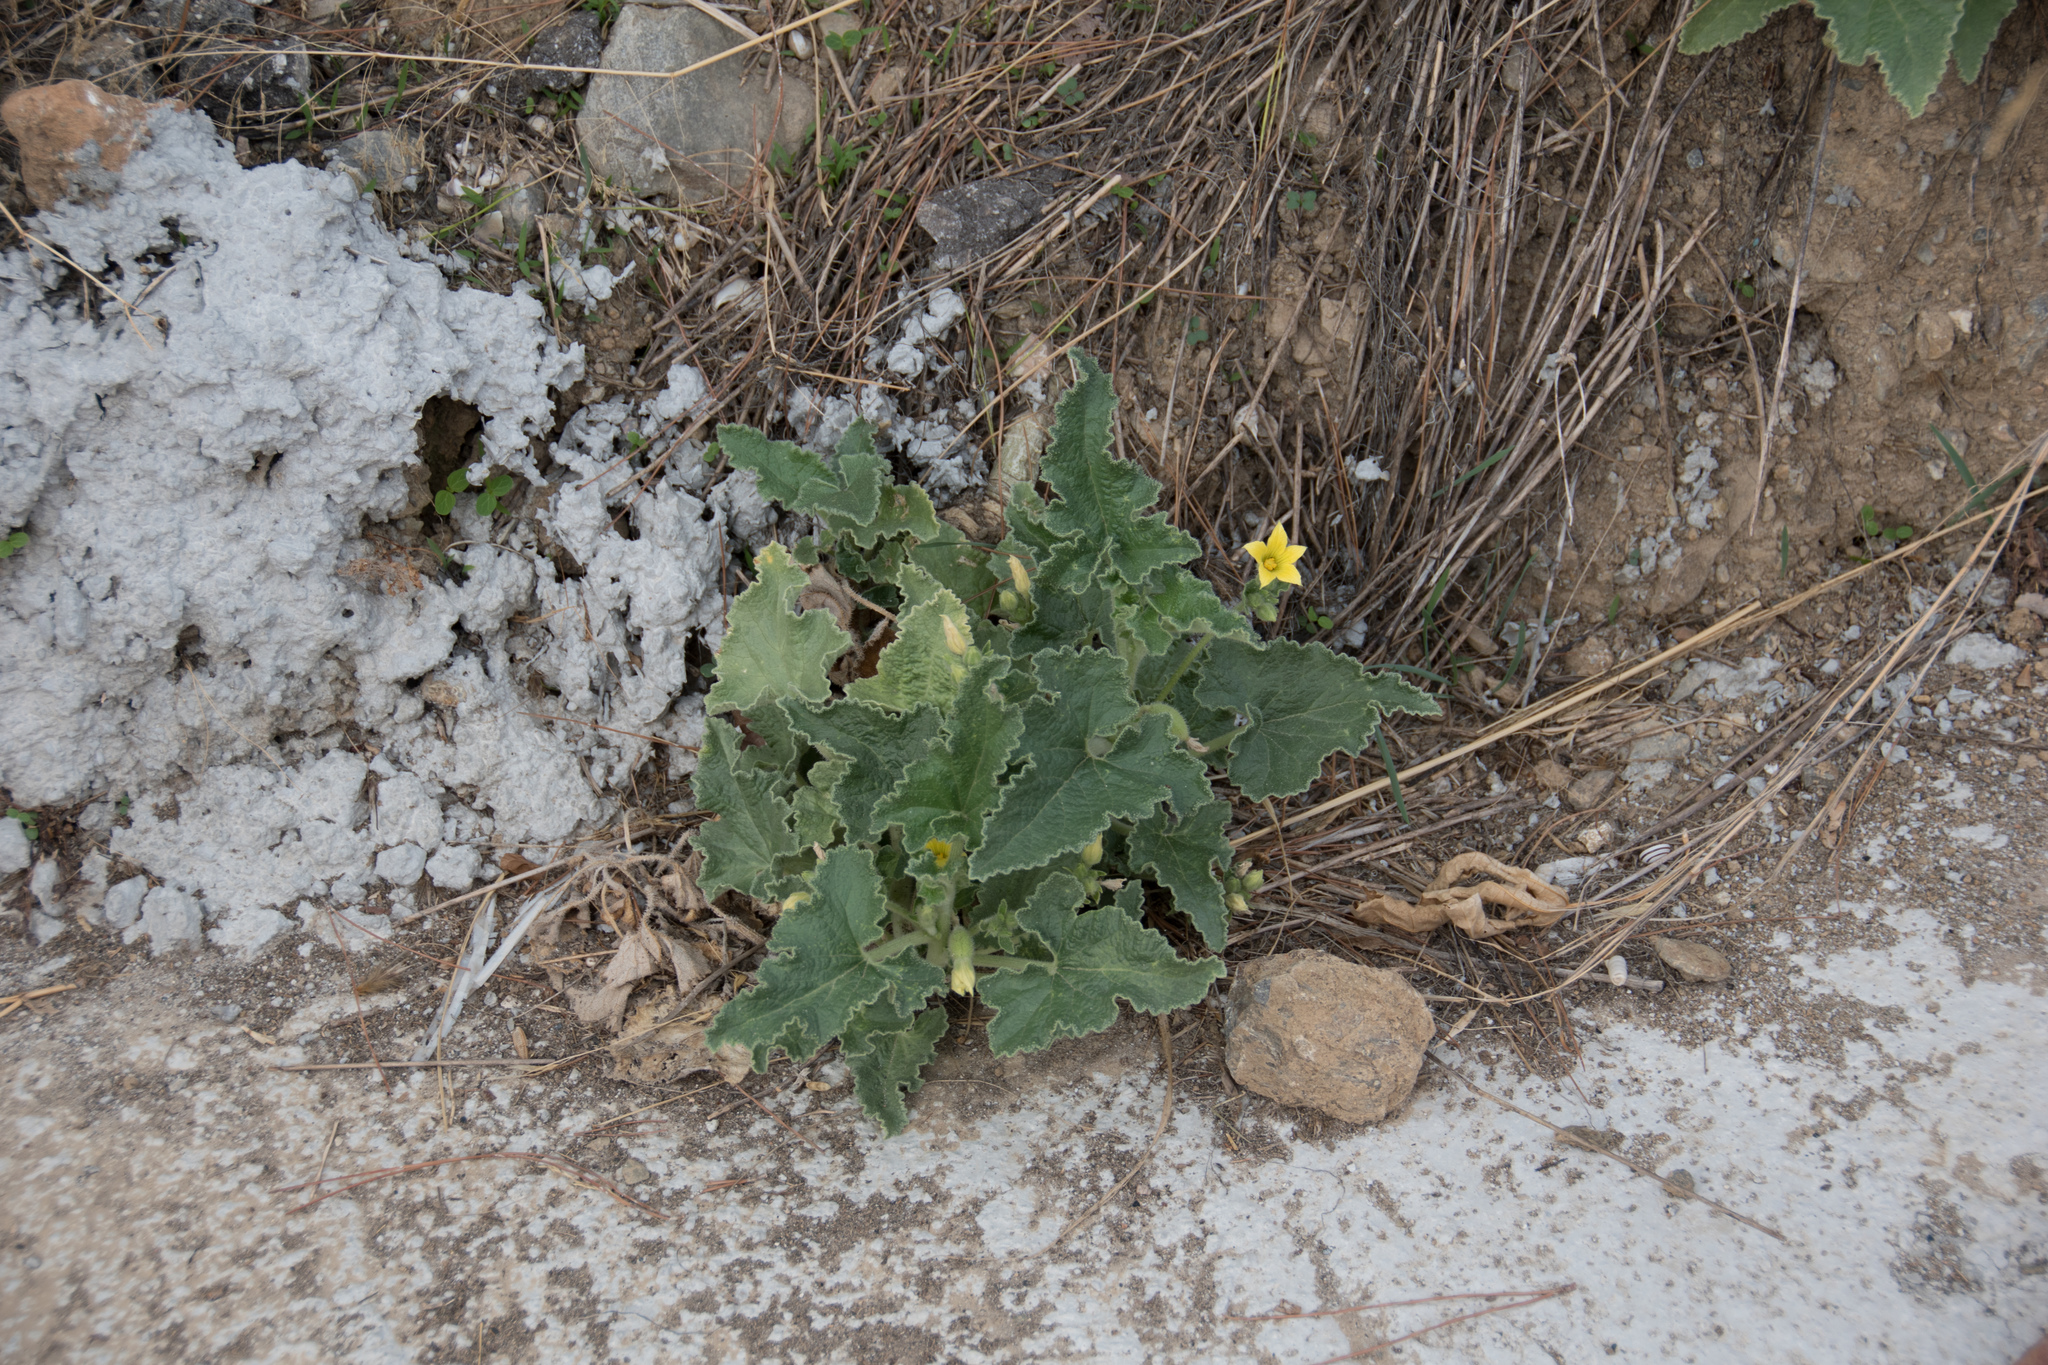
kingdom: Plantae
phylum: Tracheophyta
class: Magnoliopsida
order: Cucurbitales
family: Cucurbitaceae
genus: Ecballium
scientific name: Ecballium elaterium
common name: Squirting cucumber
